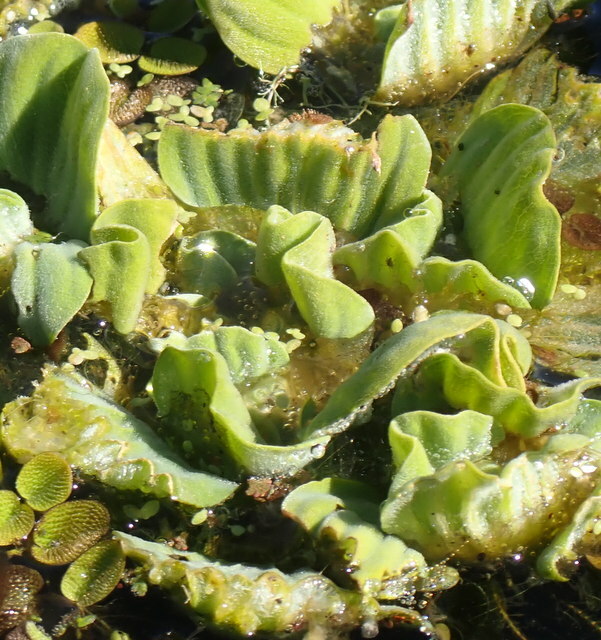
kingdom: Plantae
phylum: Tracheophyta
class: Liliopsida
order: Alismatales
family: Araceae
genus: Pistia
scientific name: Pistia stratiotes
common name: Water lettuce
